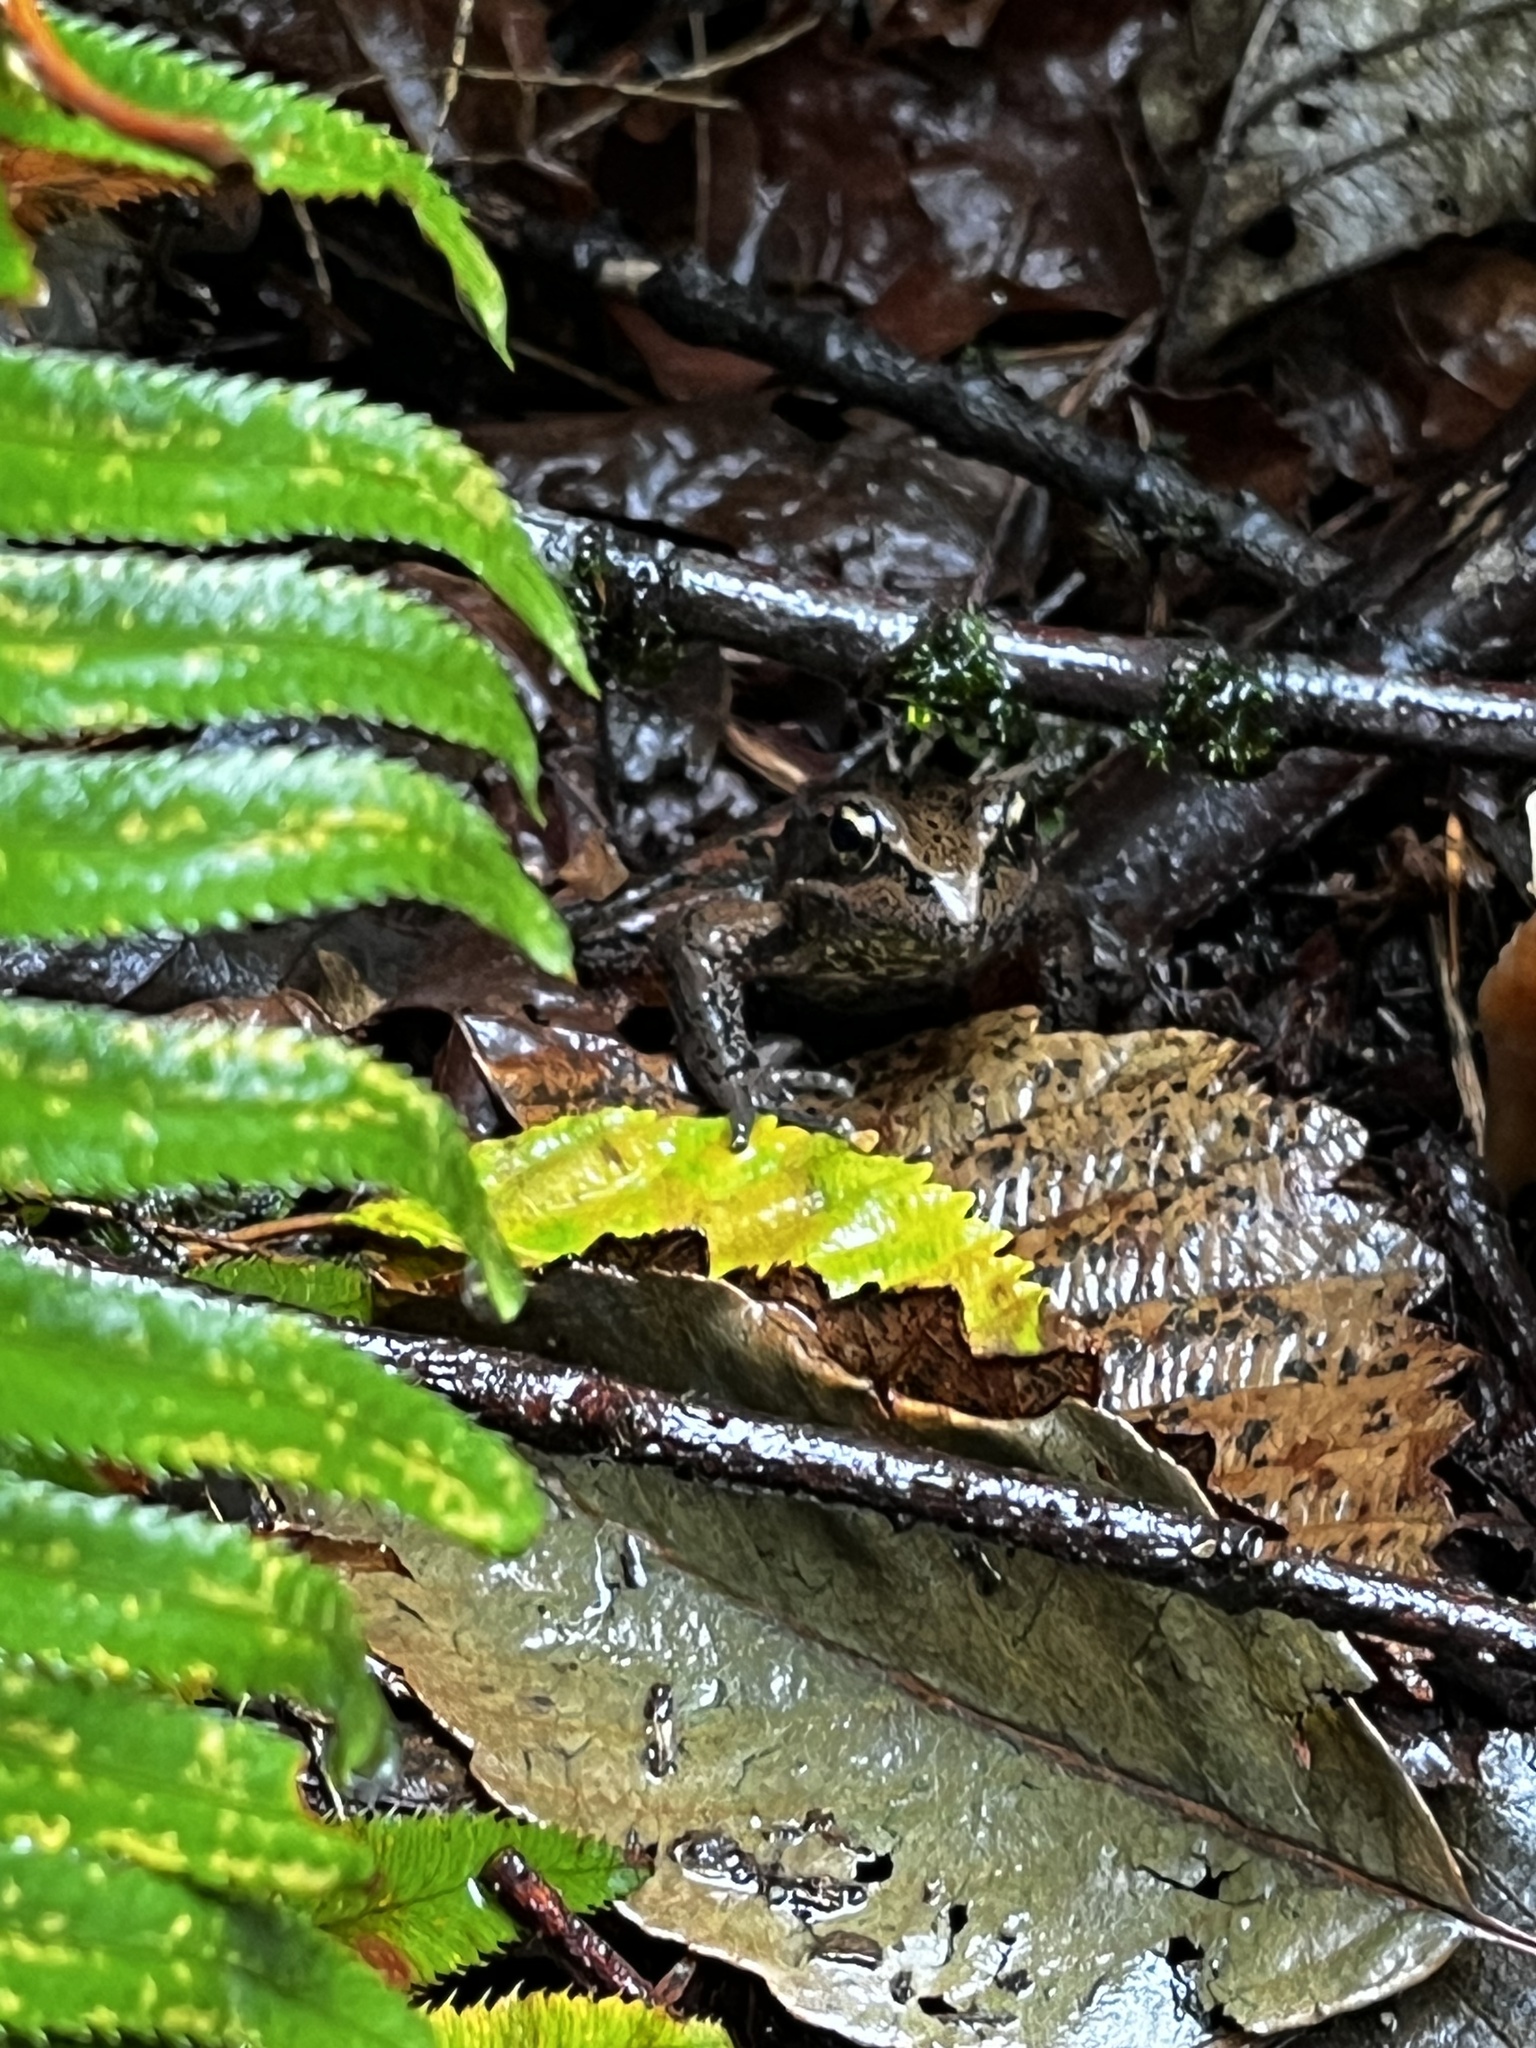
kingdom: Animalia
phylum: Chordata
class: Amphibia
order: Anura
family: Ranidae
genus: Rana
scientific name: Rana aurora
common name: Red-legged frog
